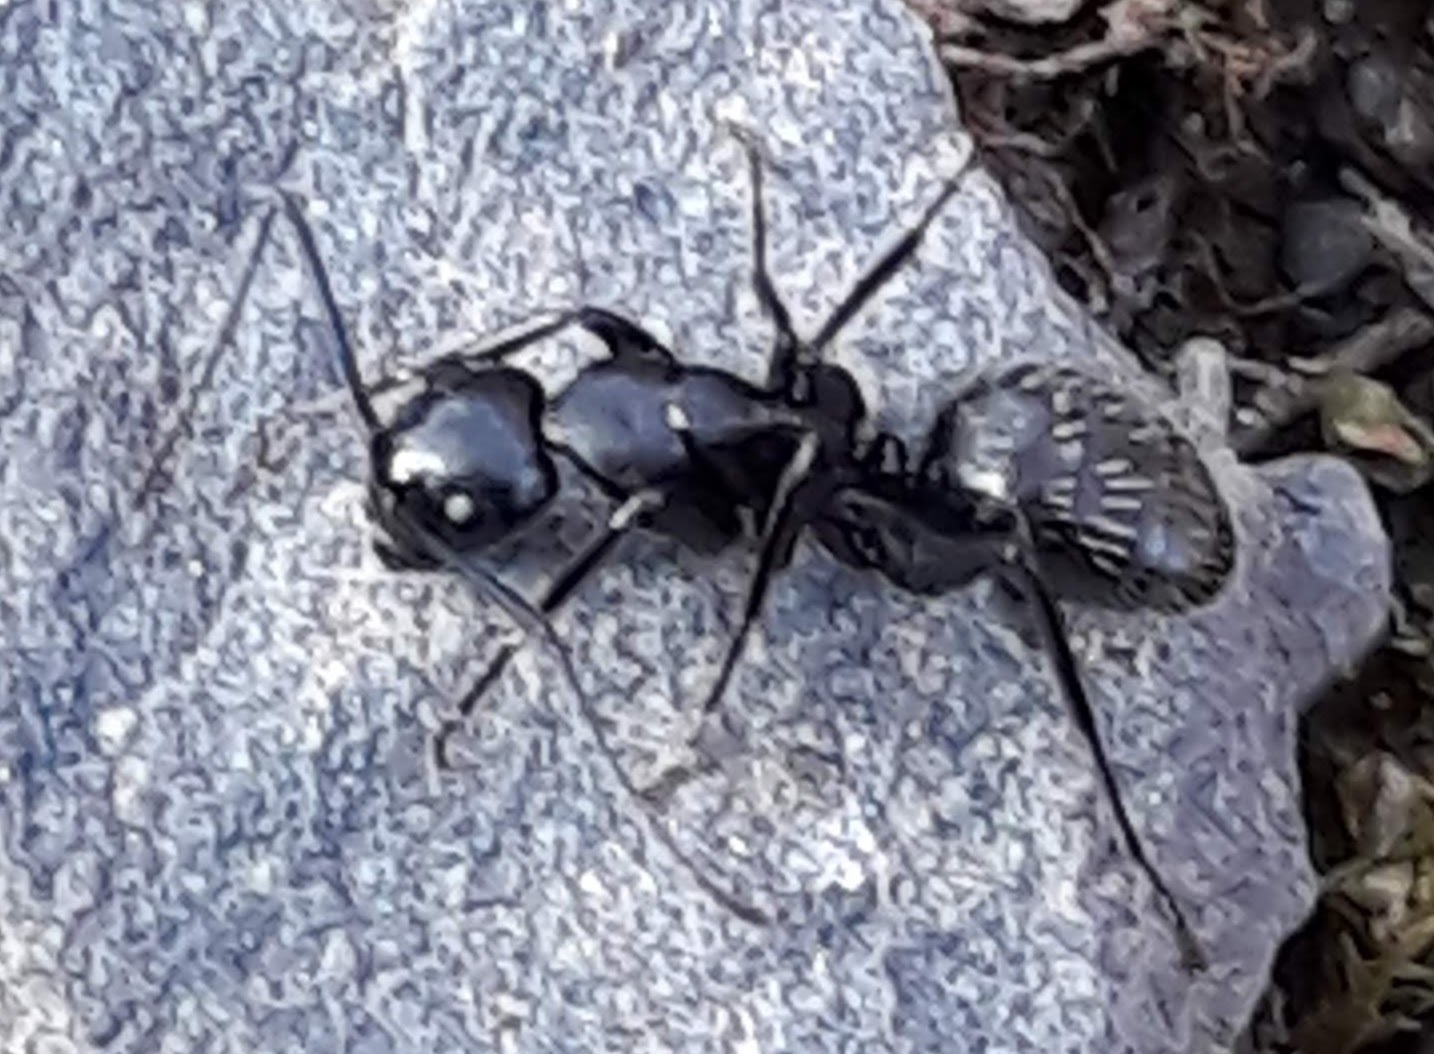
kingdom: Animalia
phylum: Arthropoda
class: Insecta
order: Hymenoptera
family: Formicidae
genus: Camponotus
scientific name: Camponotus pennsylvanicus
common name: Black carpenter ant
